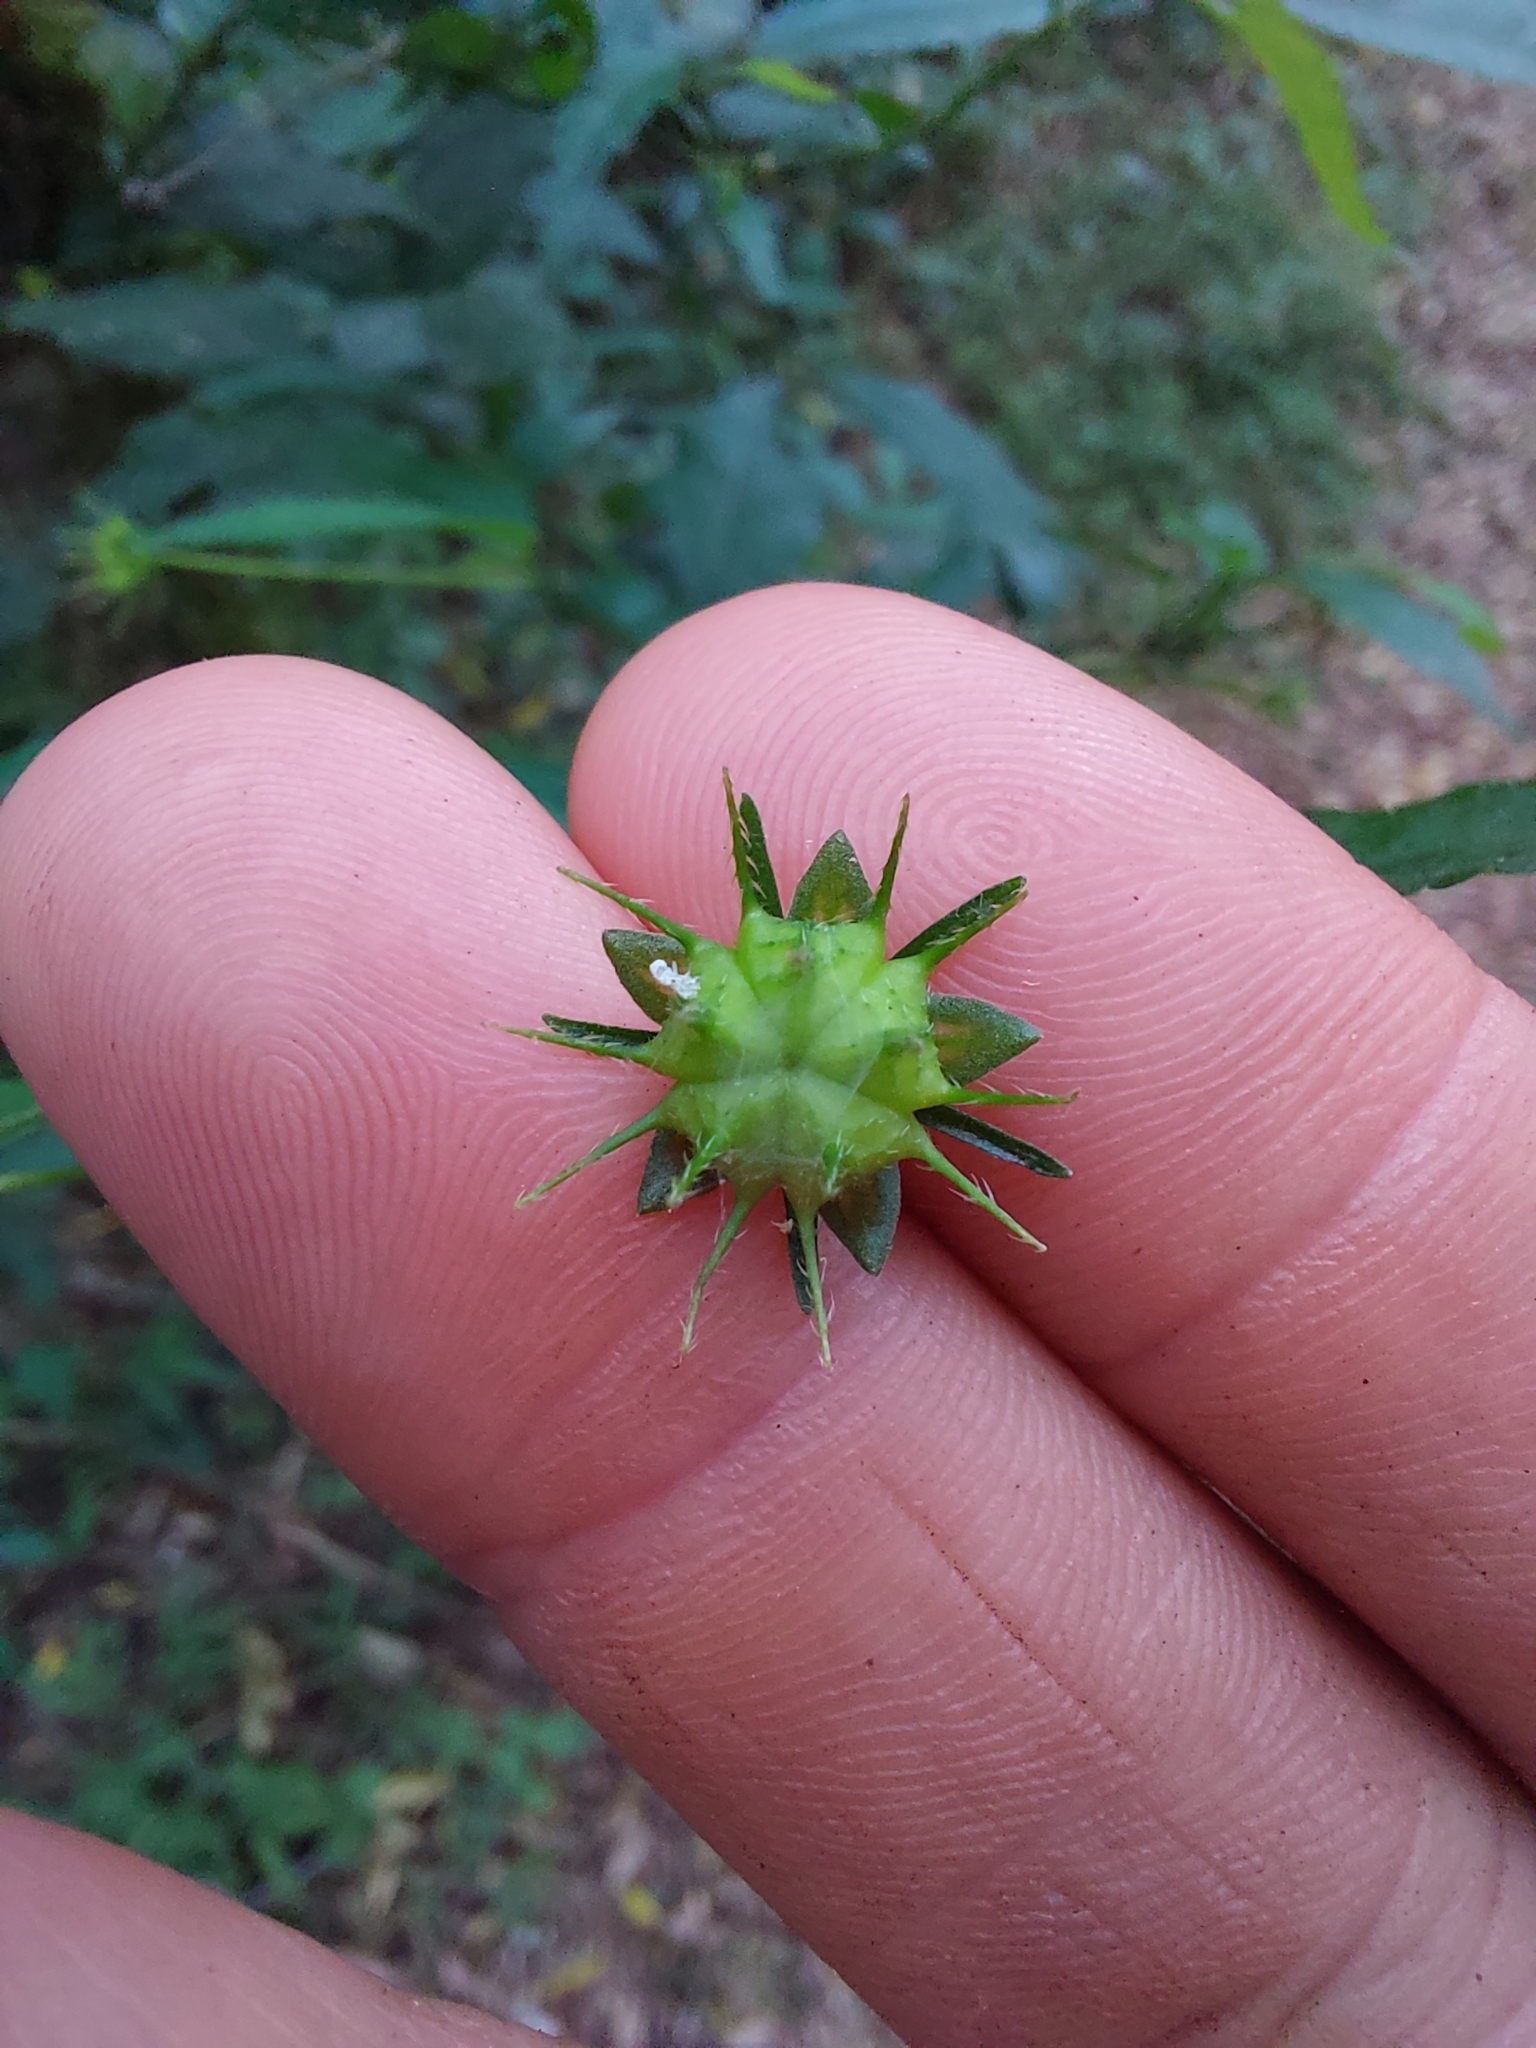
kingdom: Plantae
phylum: Tracheophyta
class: Magnoliopsida
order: Malvales
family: Malvaceae
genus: Pavonia
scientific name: Pavonia sepium
